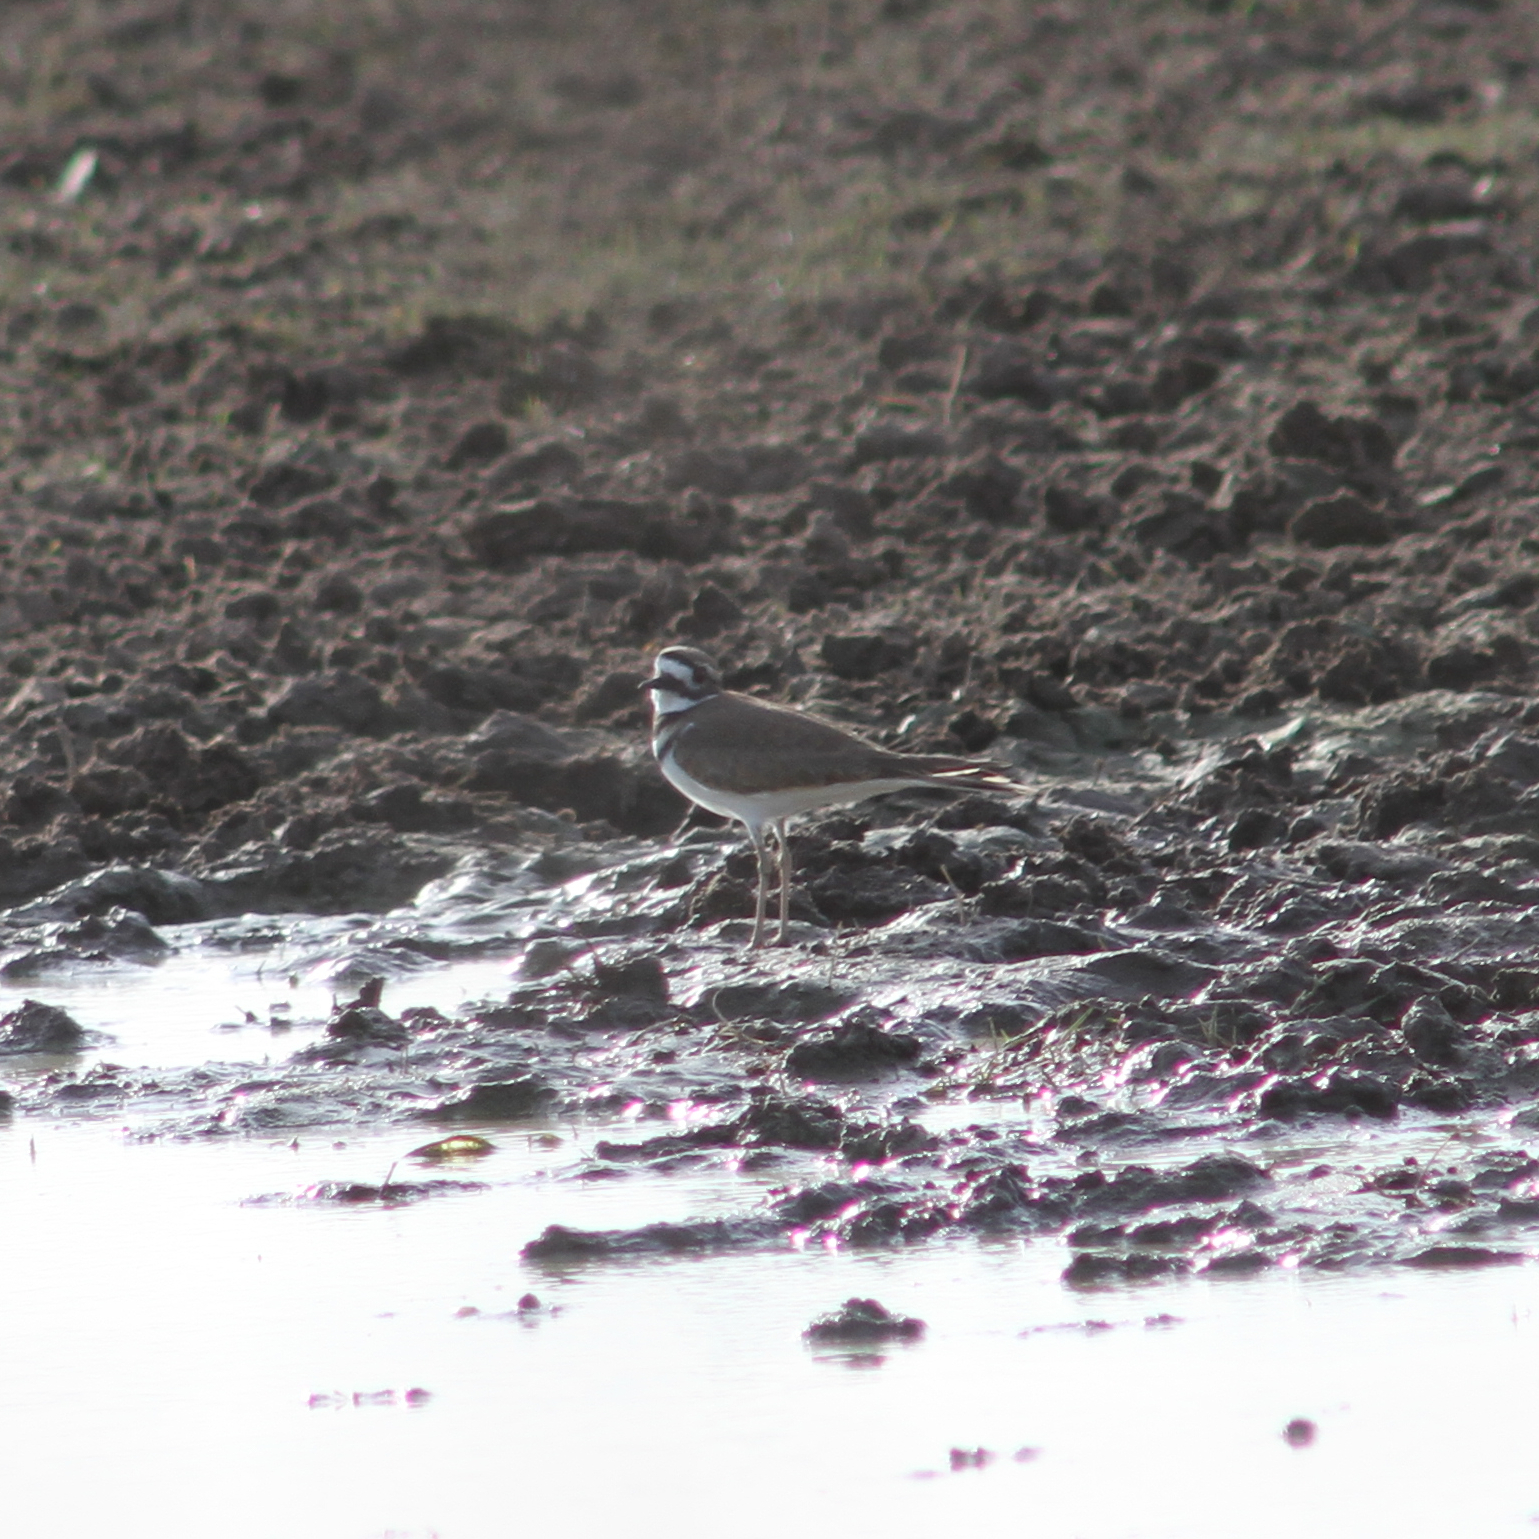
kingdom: Animalia
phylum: Chordata
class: Aves
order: Charadriiformes
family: Charadriidae
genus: Charadrius
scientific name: Charadrius vociferus
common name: Killdeer
